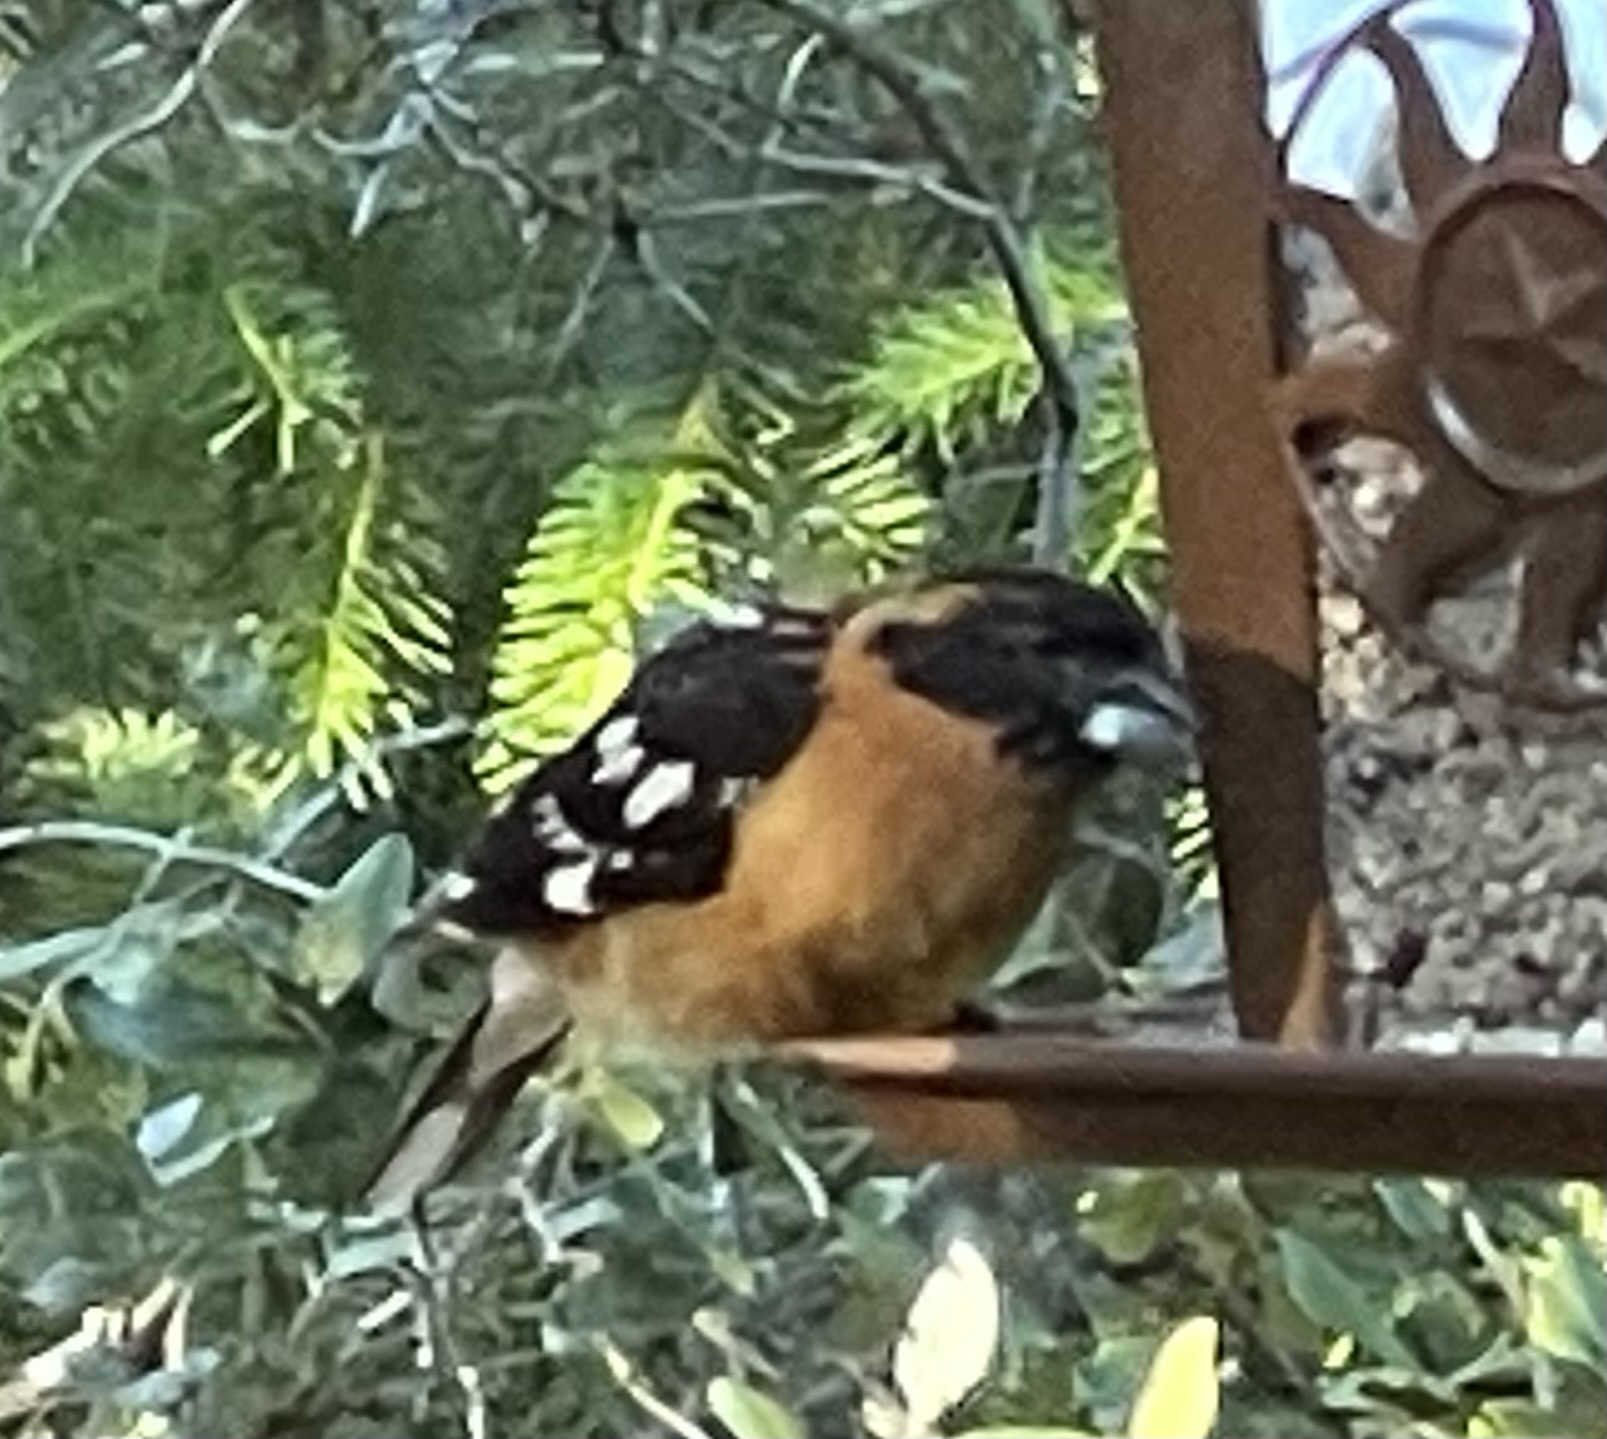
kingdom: Animalia
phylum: Chordata
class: Aves
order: Passeriformes
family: Cardinalidae
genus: Pheucticus
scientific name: Pheucticus melanocephalus
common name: Black-headed grosbeak
